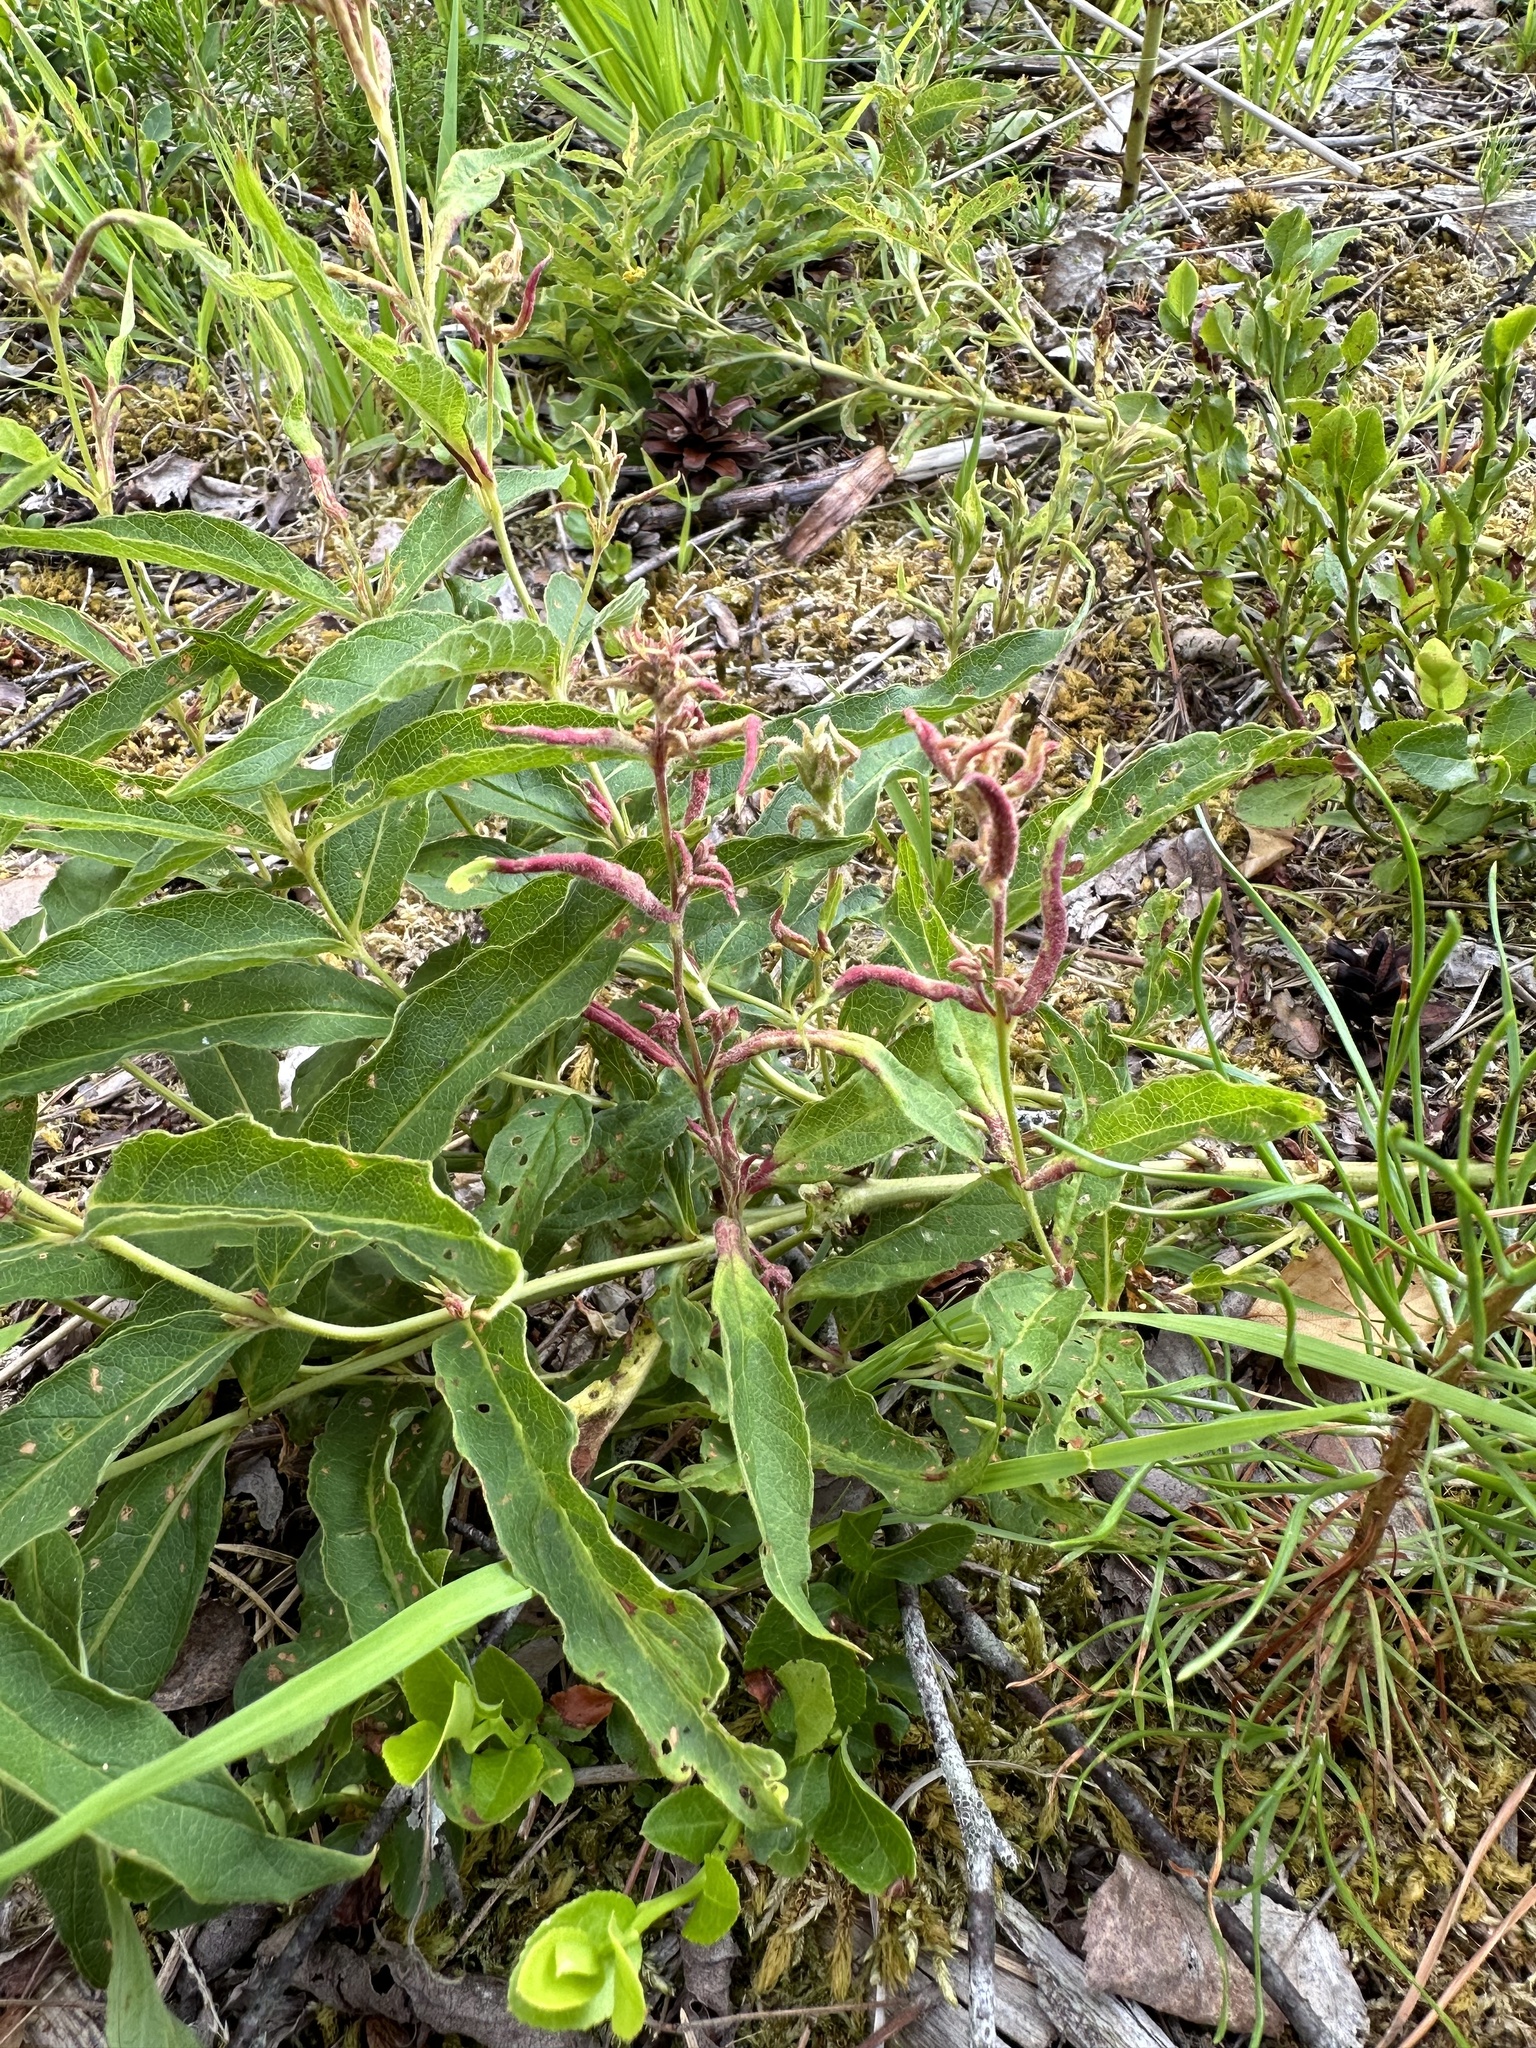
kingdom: Animalia
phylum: Arthropoda
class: Arachnida
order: Trombidiformes
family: Eriophyidae
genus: Aceria
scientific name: Aceria laticincta
